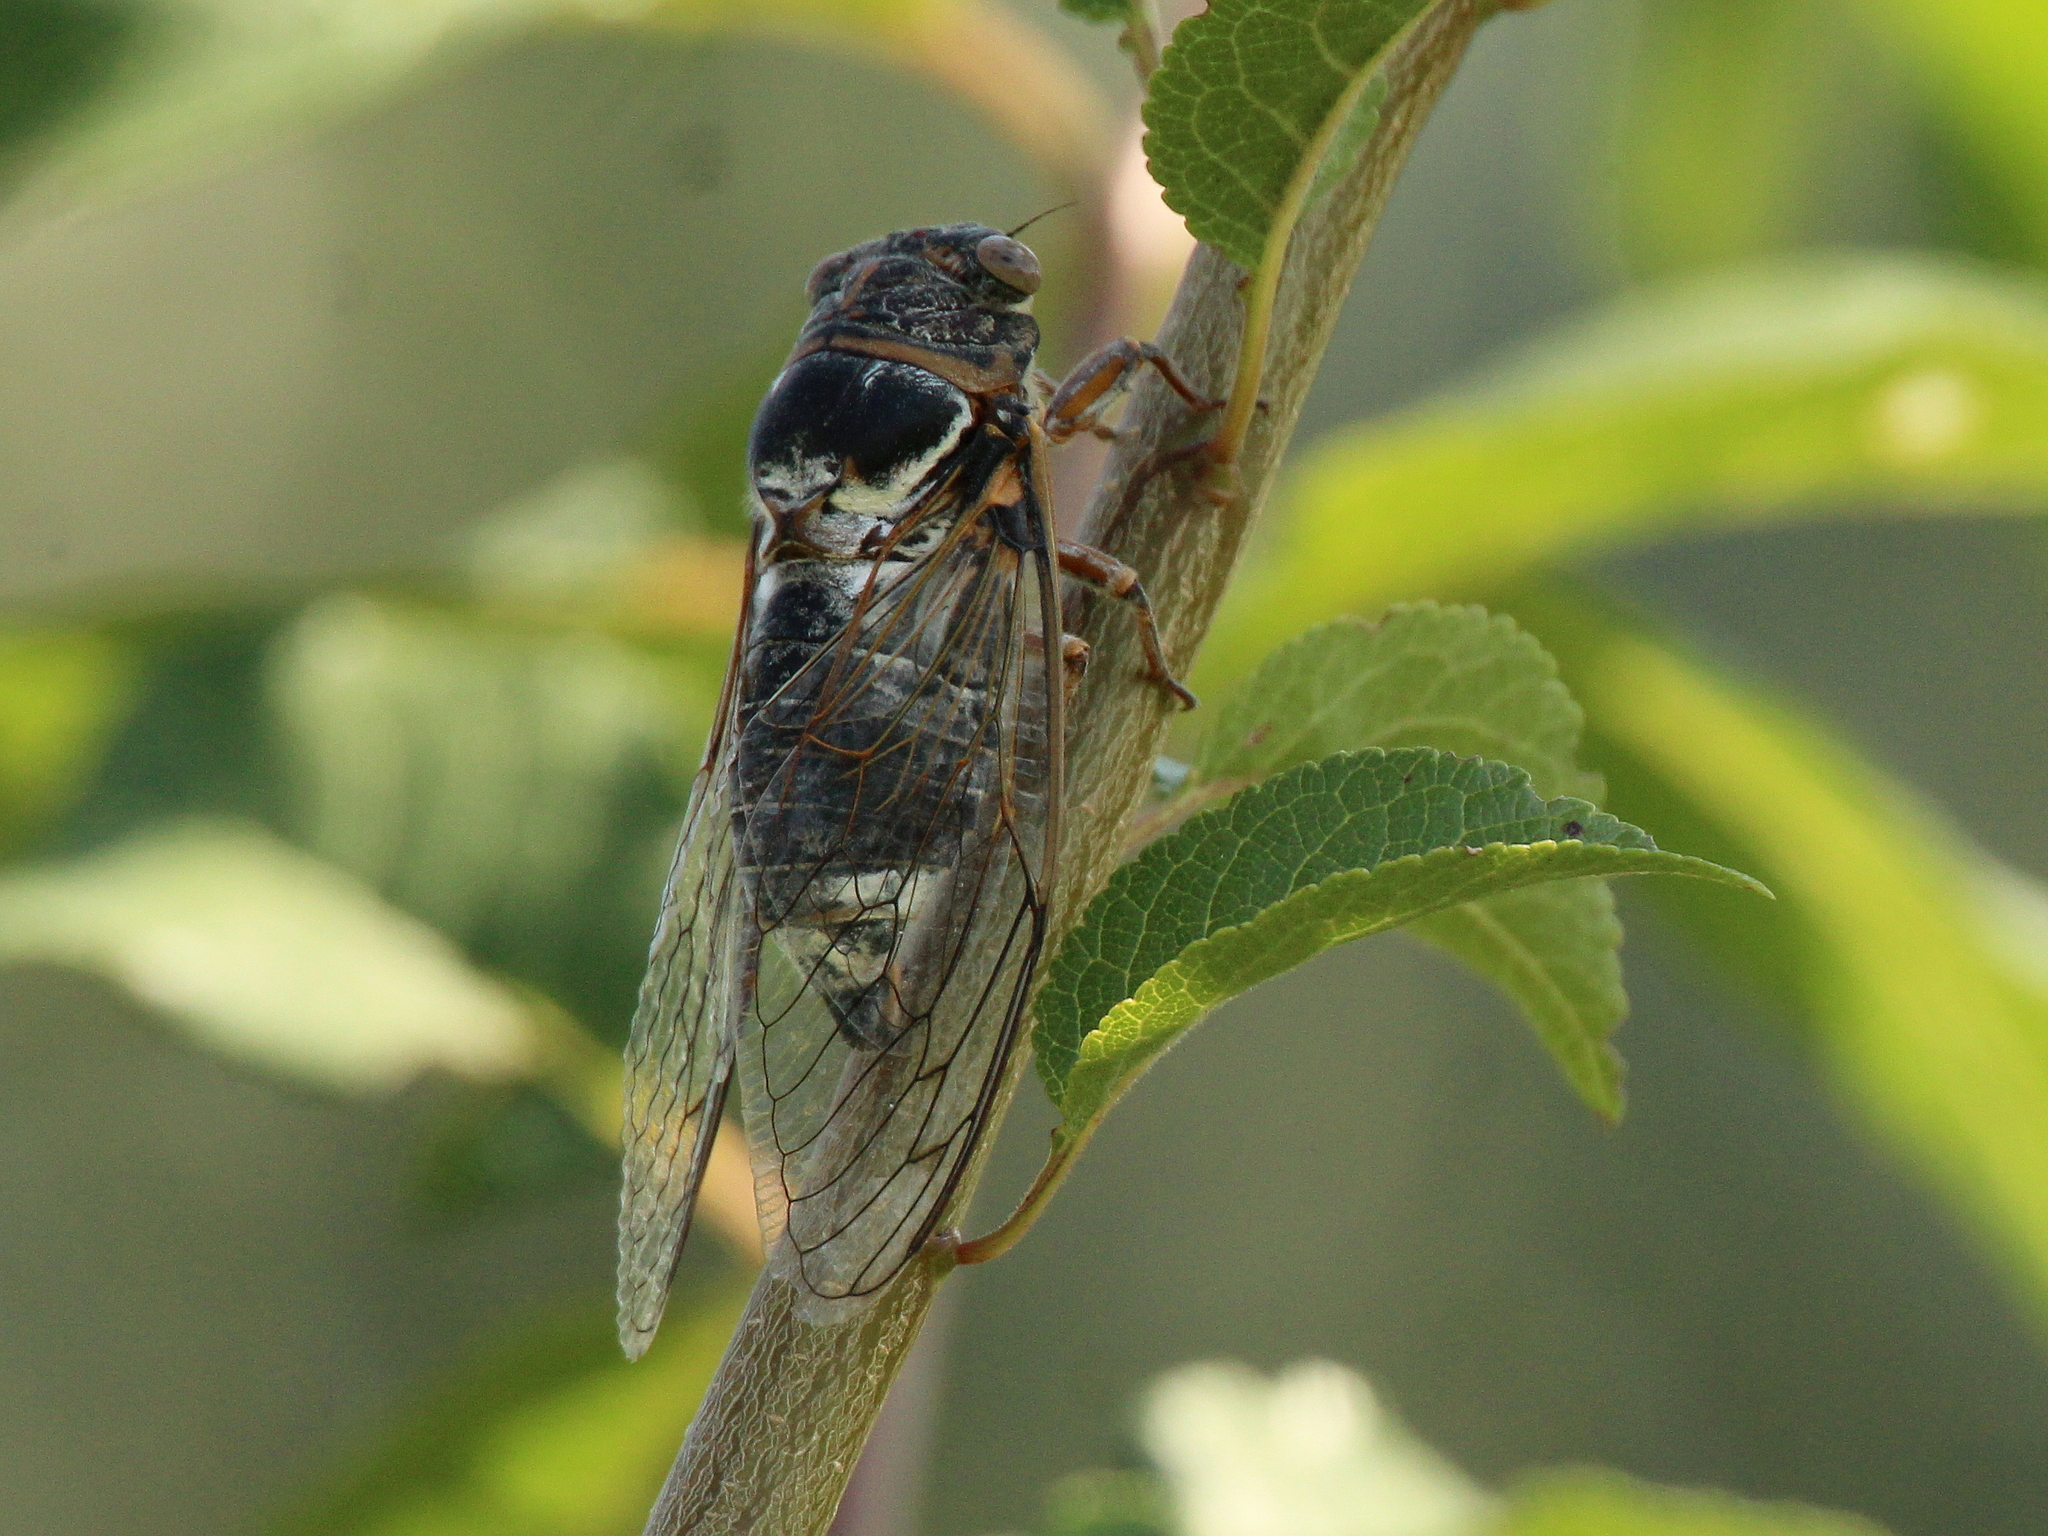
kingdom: Animalia
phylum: Arthropoda
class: Insecta
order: Hemiptera
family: Cicadidae
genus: Lyristes
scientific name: Lyristes plebejus
